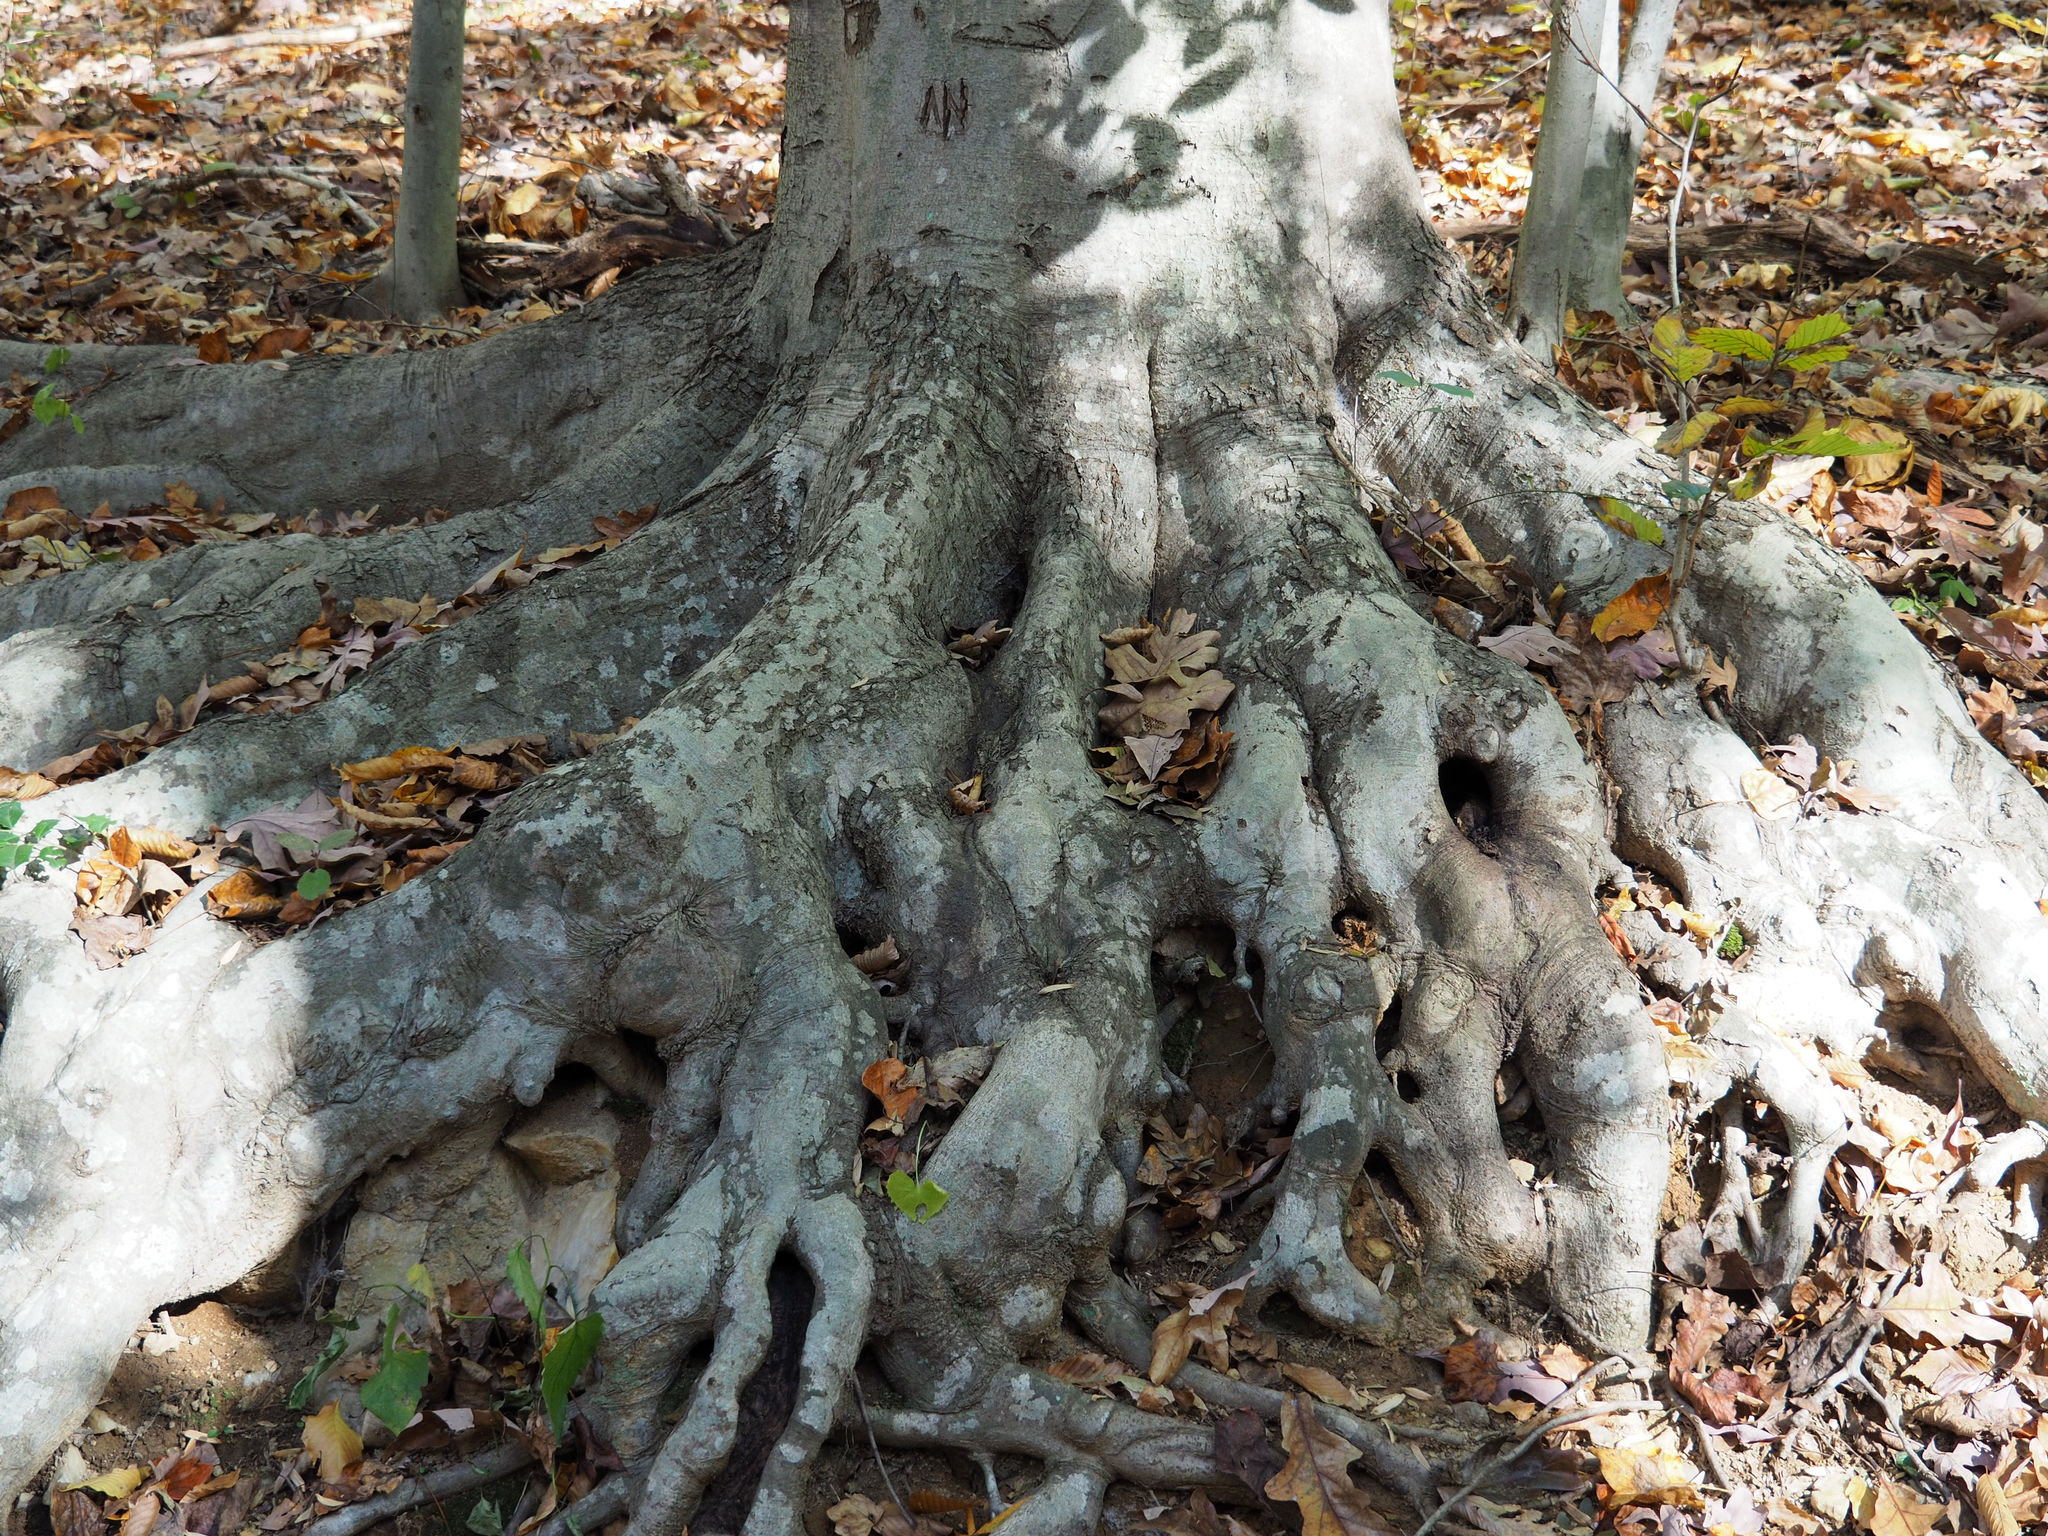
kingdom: Plantae
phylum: Tracheophyta
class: Magnoliopsida
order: Fagales
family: Fagaceae
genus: Fagus
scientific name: Fagus grandifolia
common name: American beech
